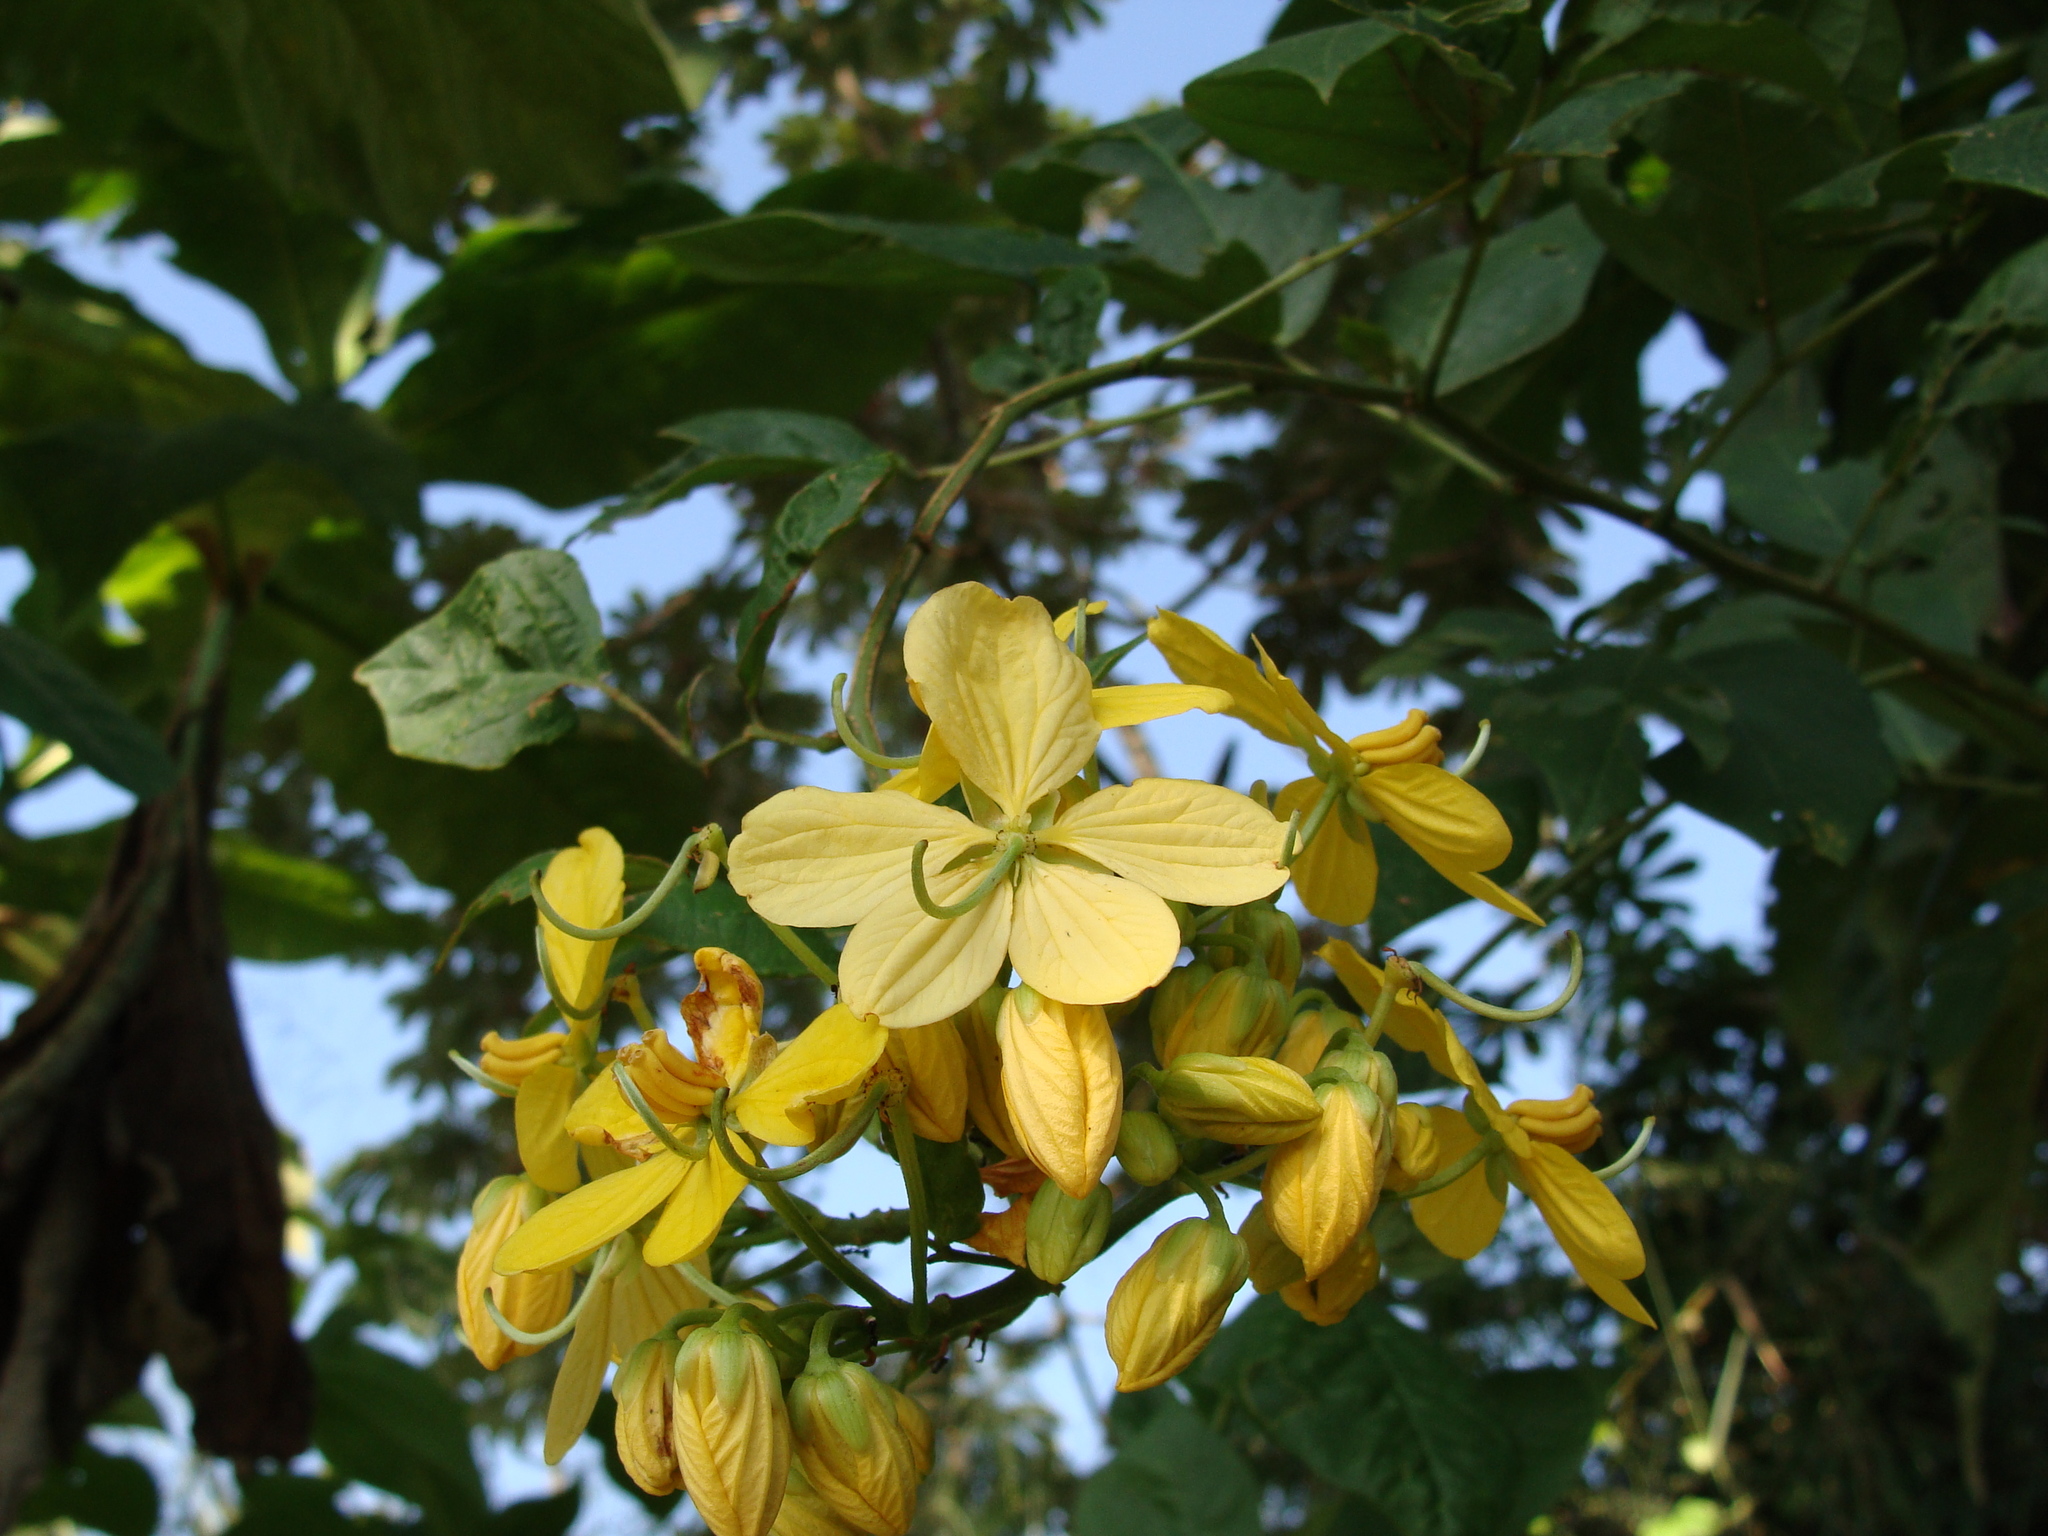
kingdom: Plantae
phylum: Tracheophyta
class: Magnoliopsida
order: Fabales
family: Fabaceae
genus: Senna
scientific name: Senna hayesiana
